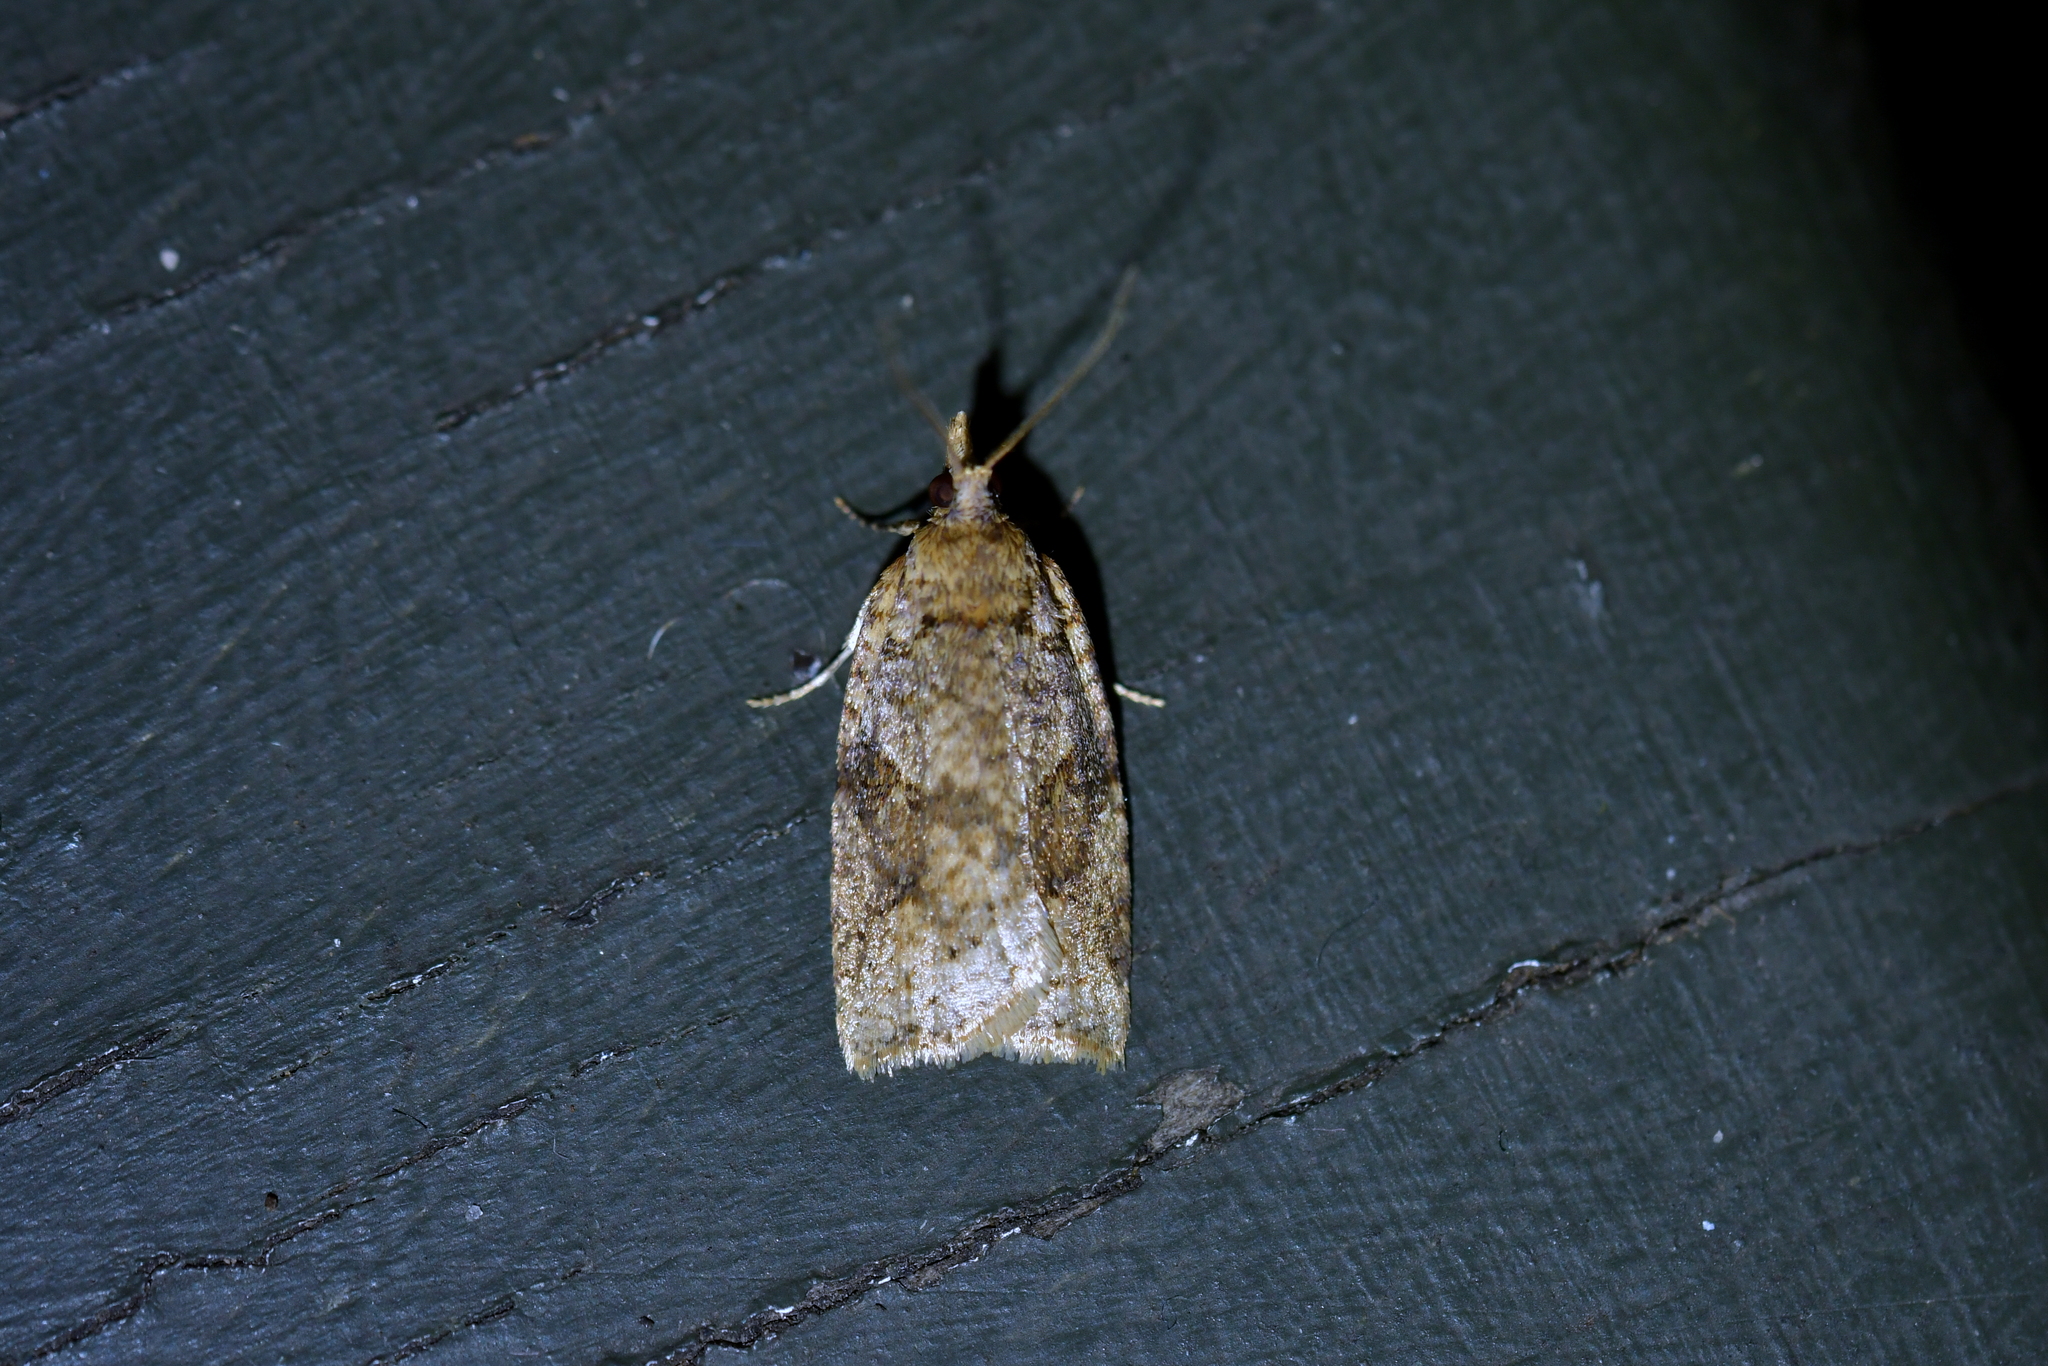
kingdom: Animalia
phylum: Arthropoda
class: Insecta
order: Lepidoptera
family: Tortricidae
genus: Ctenopseustis
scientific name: Ctenopseustis obliquana
